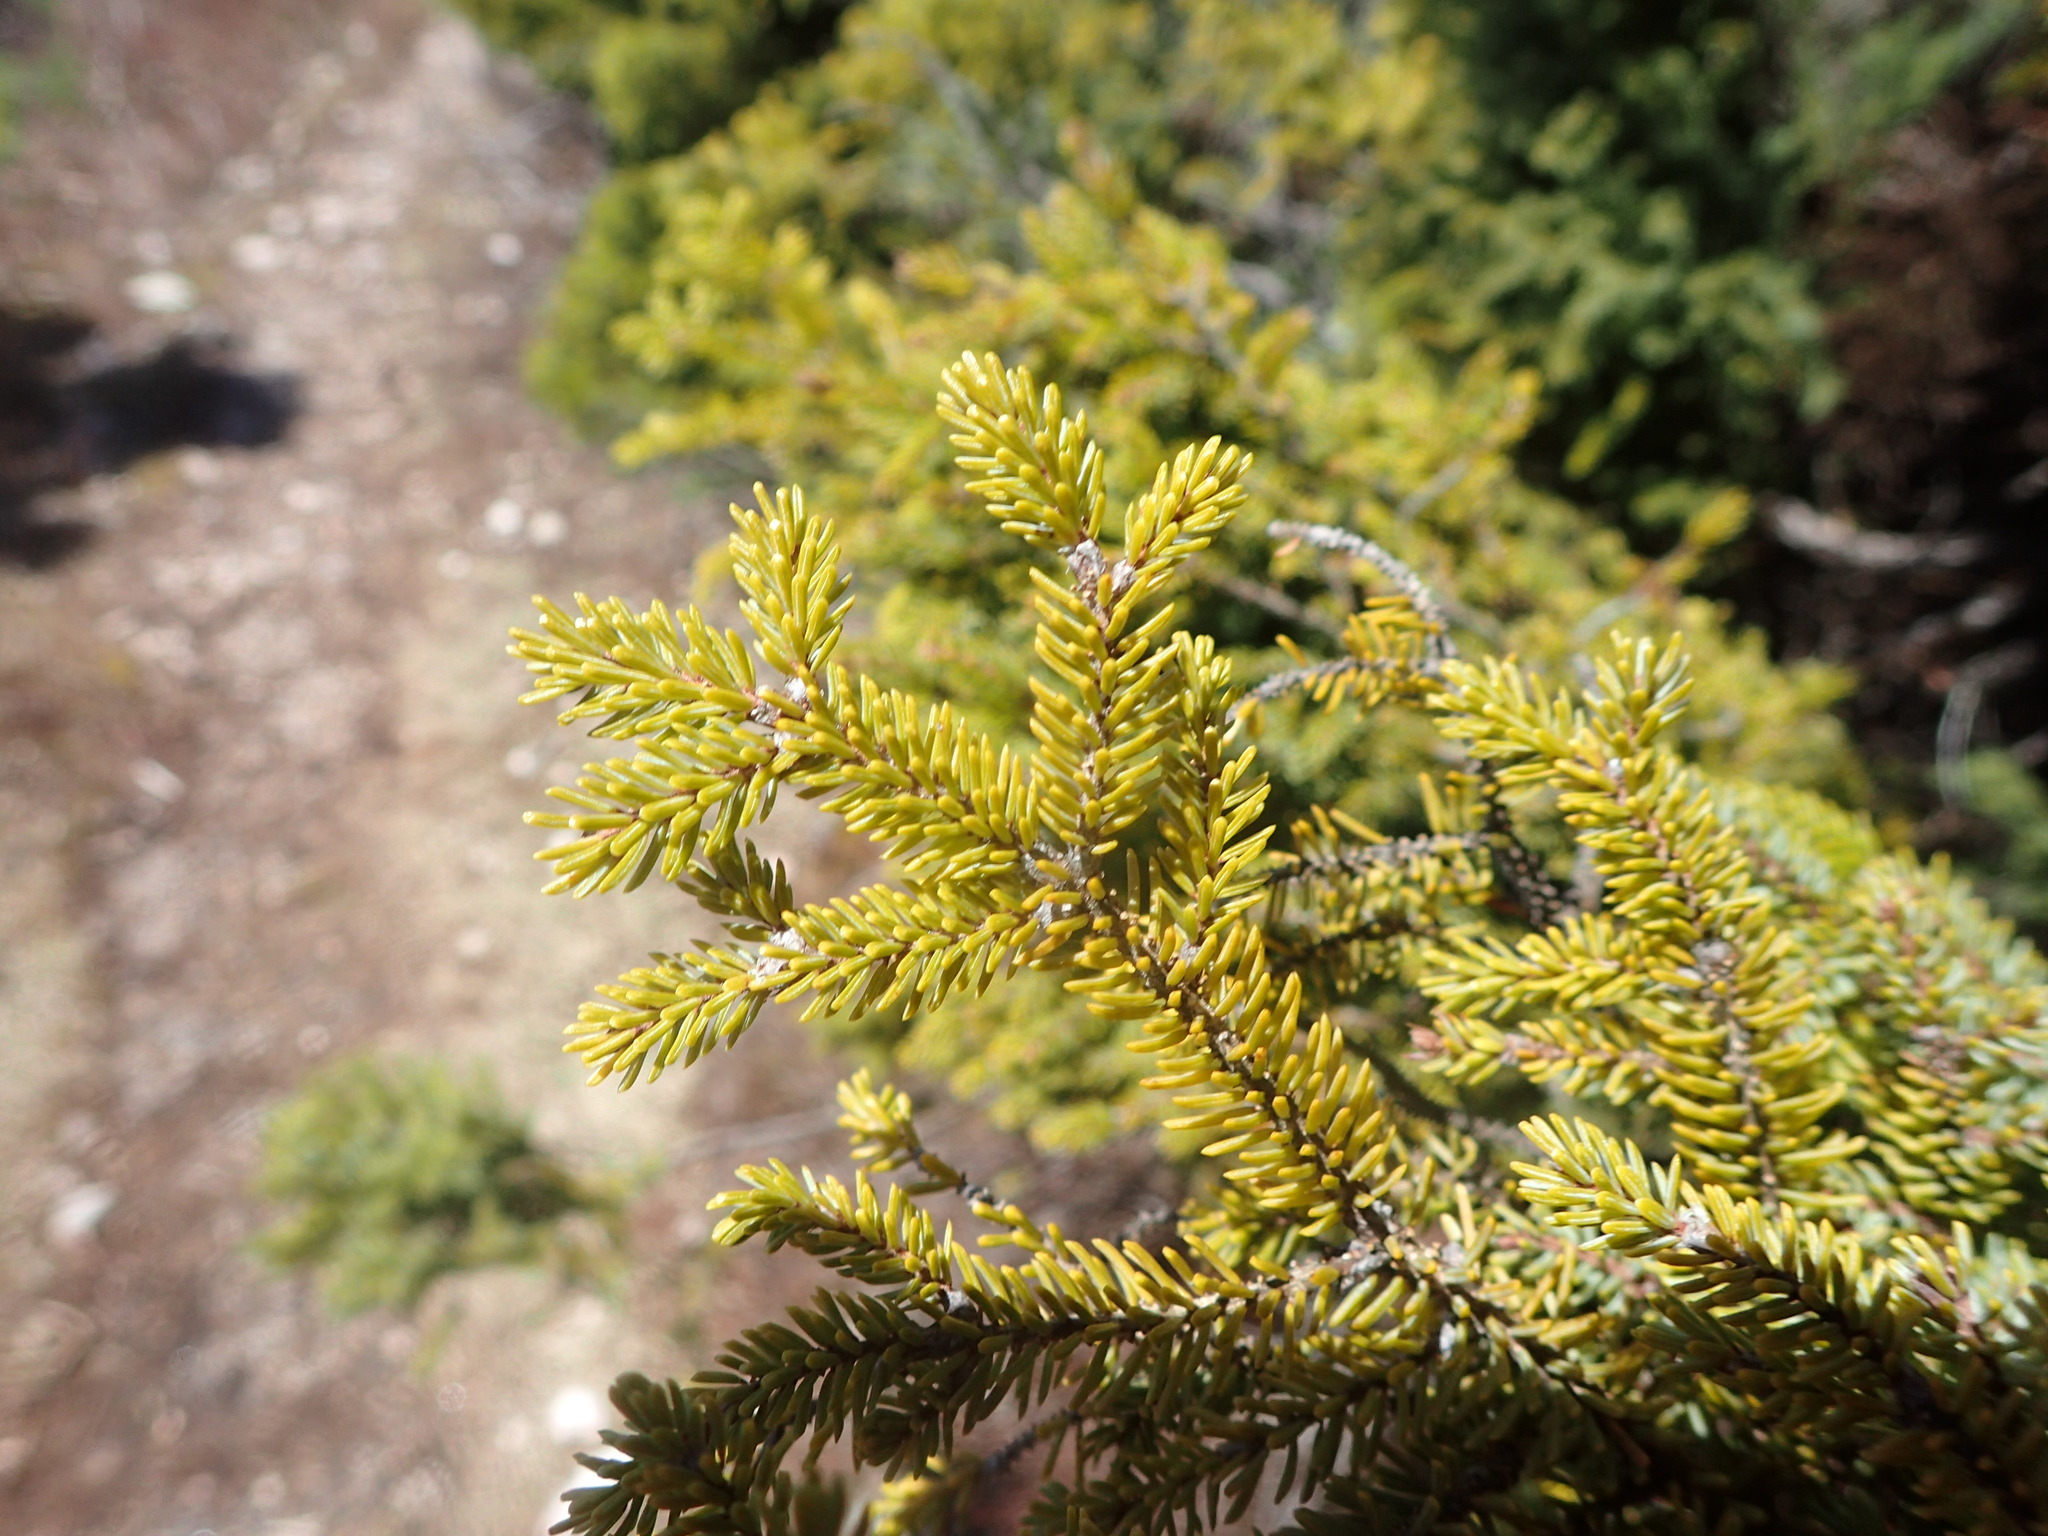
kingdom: Plantae
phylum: Tracheophyta
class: Pinopsida
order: Pinales
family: Pinaceae
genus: Picea
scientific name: Picea mariana
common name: Black spruce
